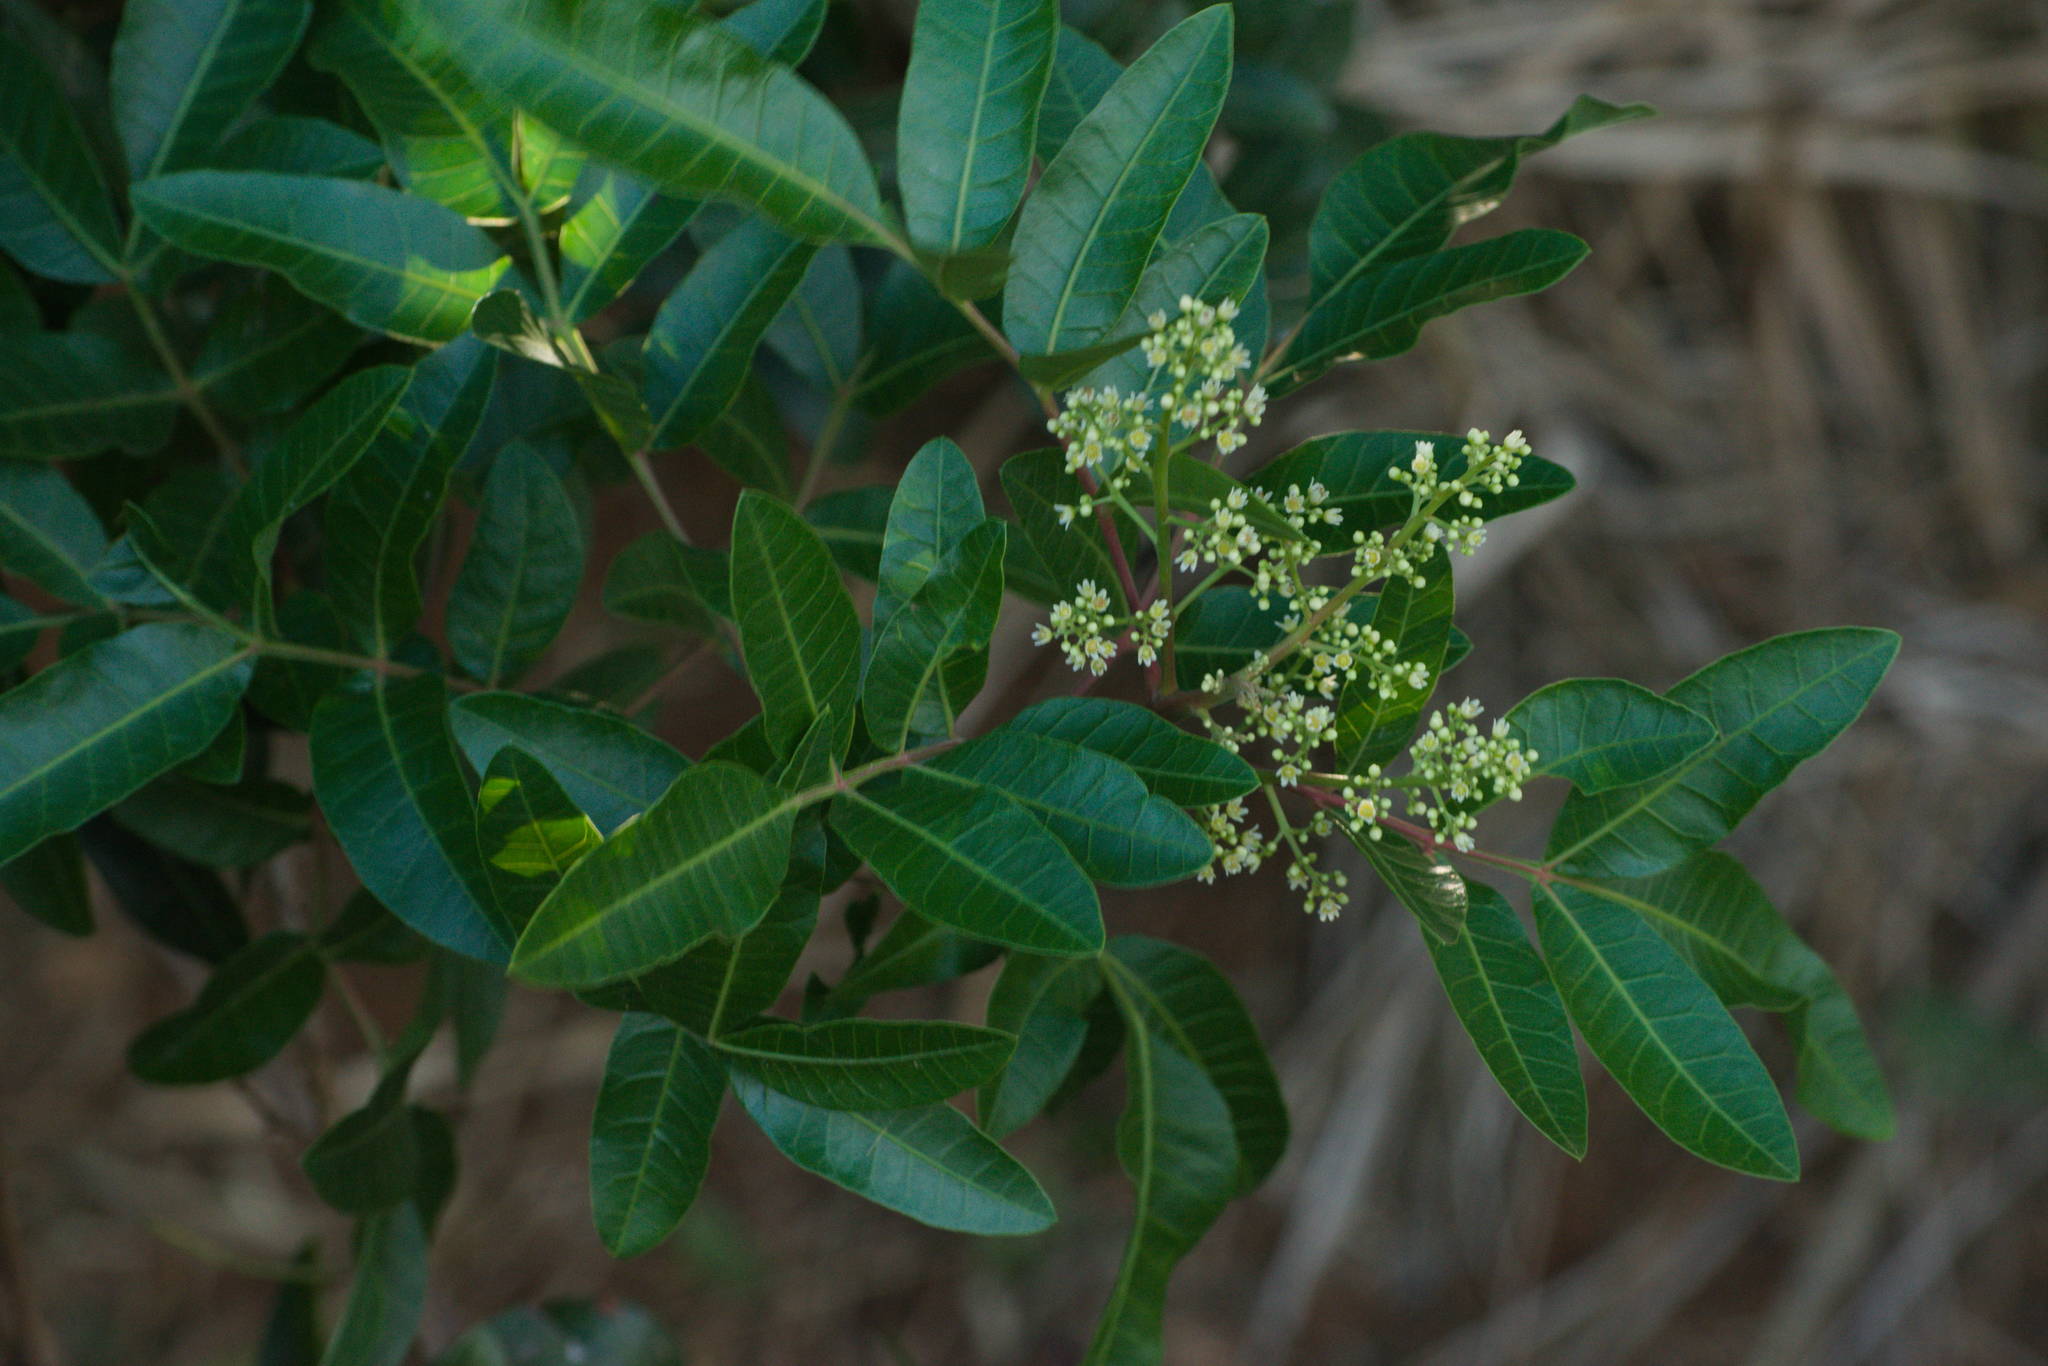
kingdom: Plantae
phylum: Tracheophyta
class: Magnoliopsida
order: Sapindales
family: Anacardiaceae
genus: Schinus
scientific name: Schinus terebinthifolia
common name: Brazilian peppertree
